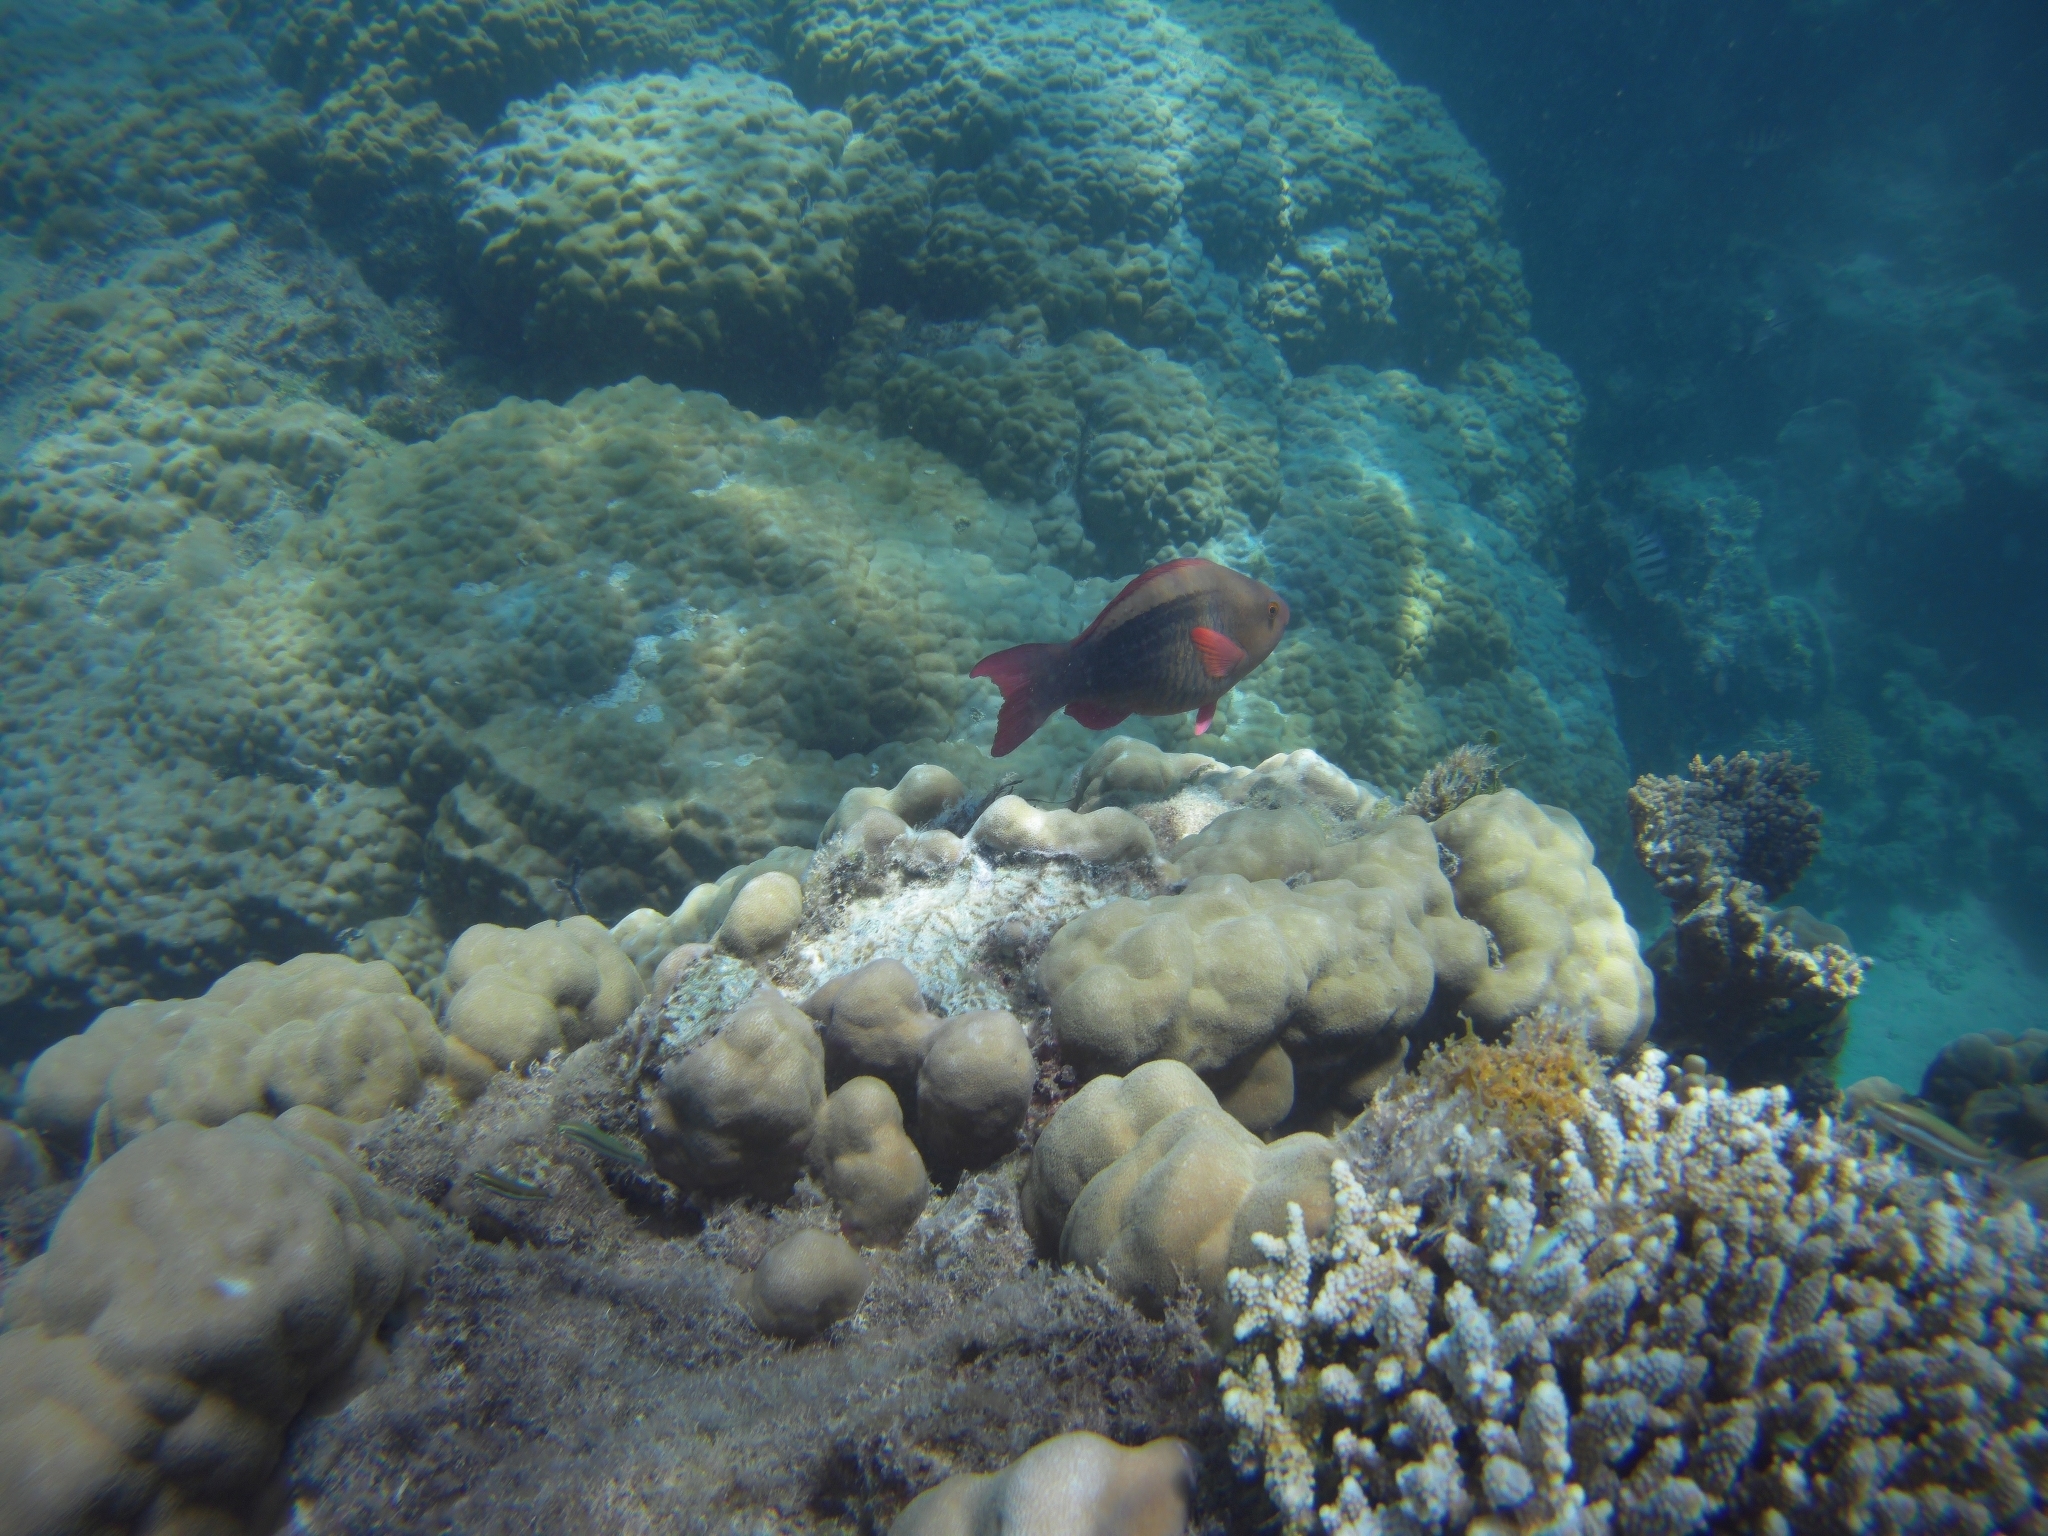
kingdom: Animalia
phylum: Chordata
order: Perciformes
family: Scaridae
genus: Scarus
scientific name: Scarus frenatus
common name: Bridled parrotfish
